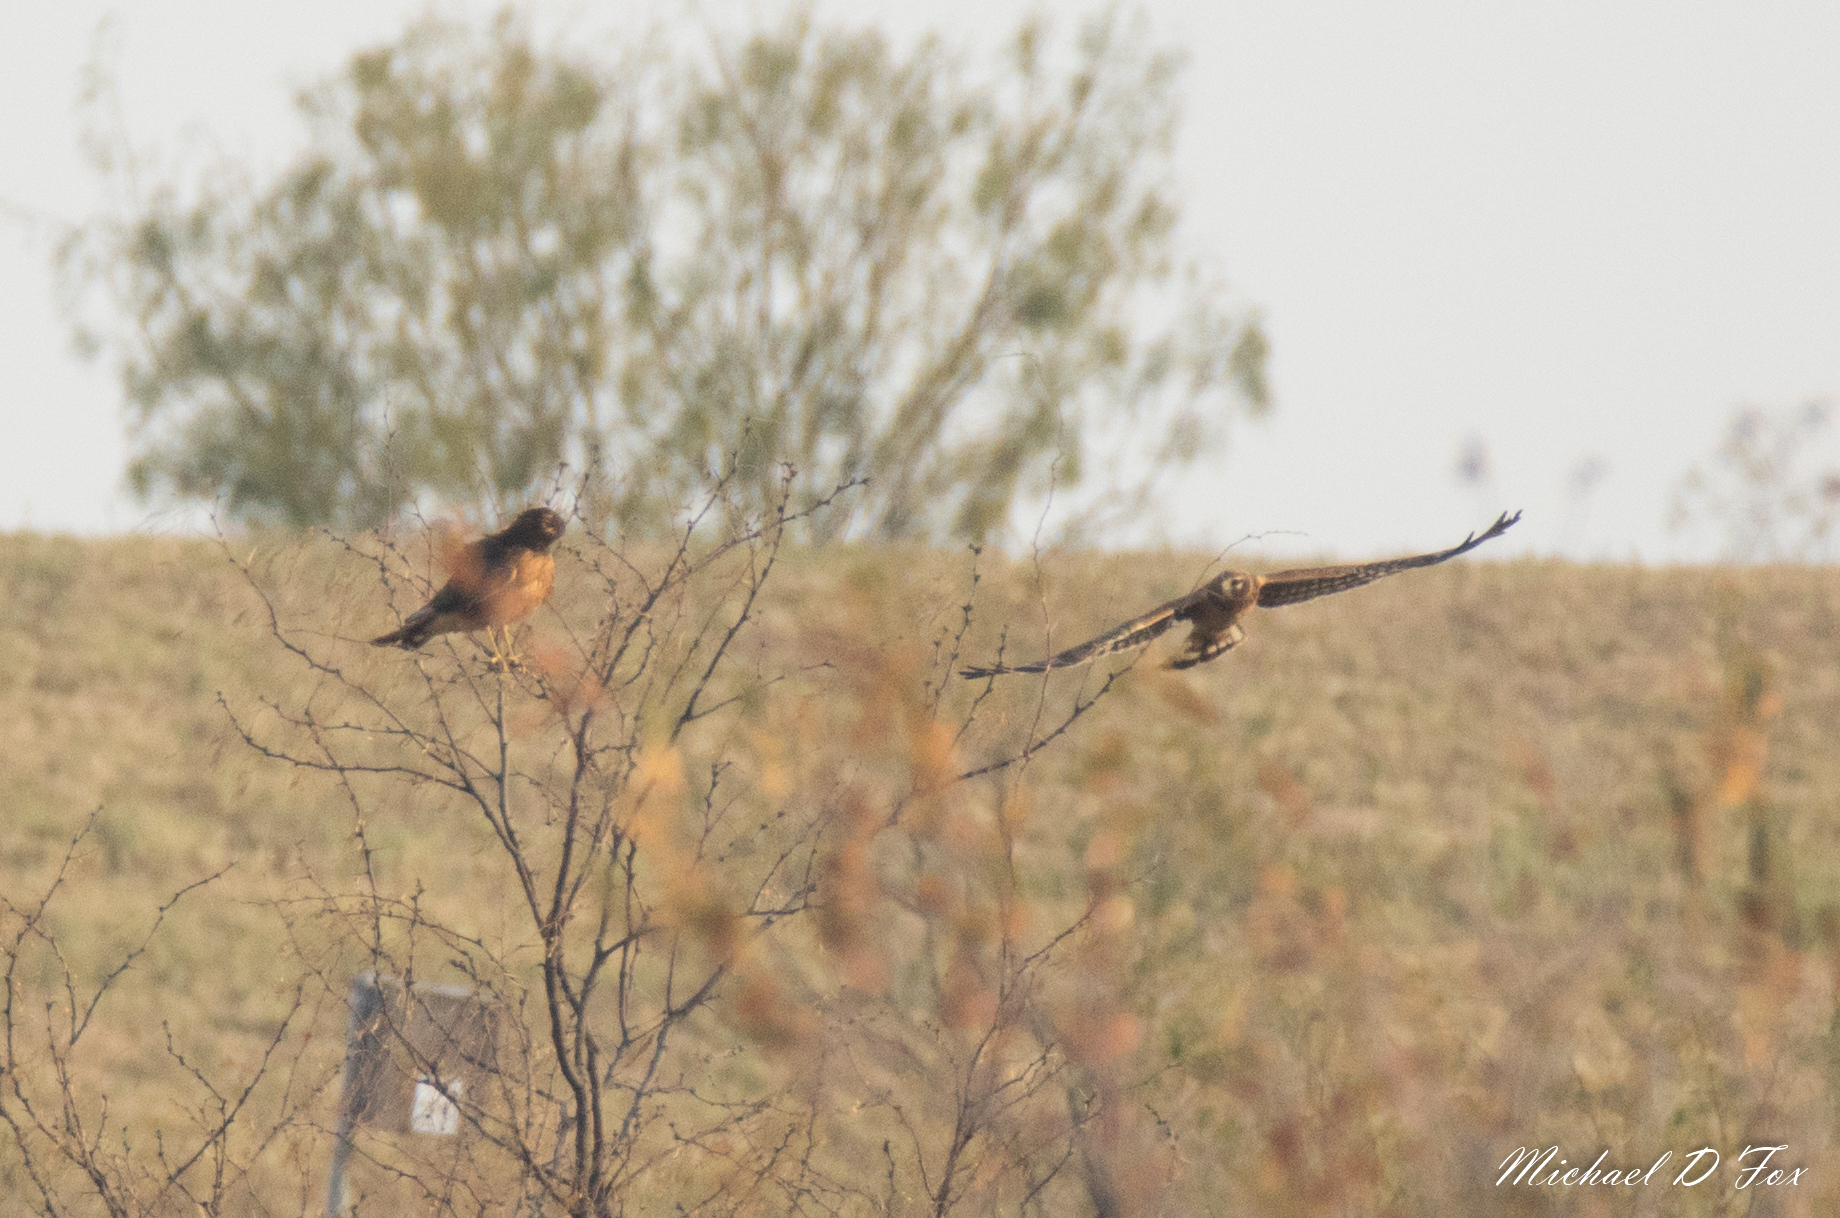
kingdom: Animalia
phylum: Chordata
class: Aves
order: Accipitriformes
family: Accipitridae
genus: Circus
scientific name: Circus cyaneus
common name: Hen harrier
